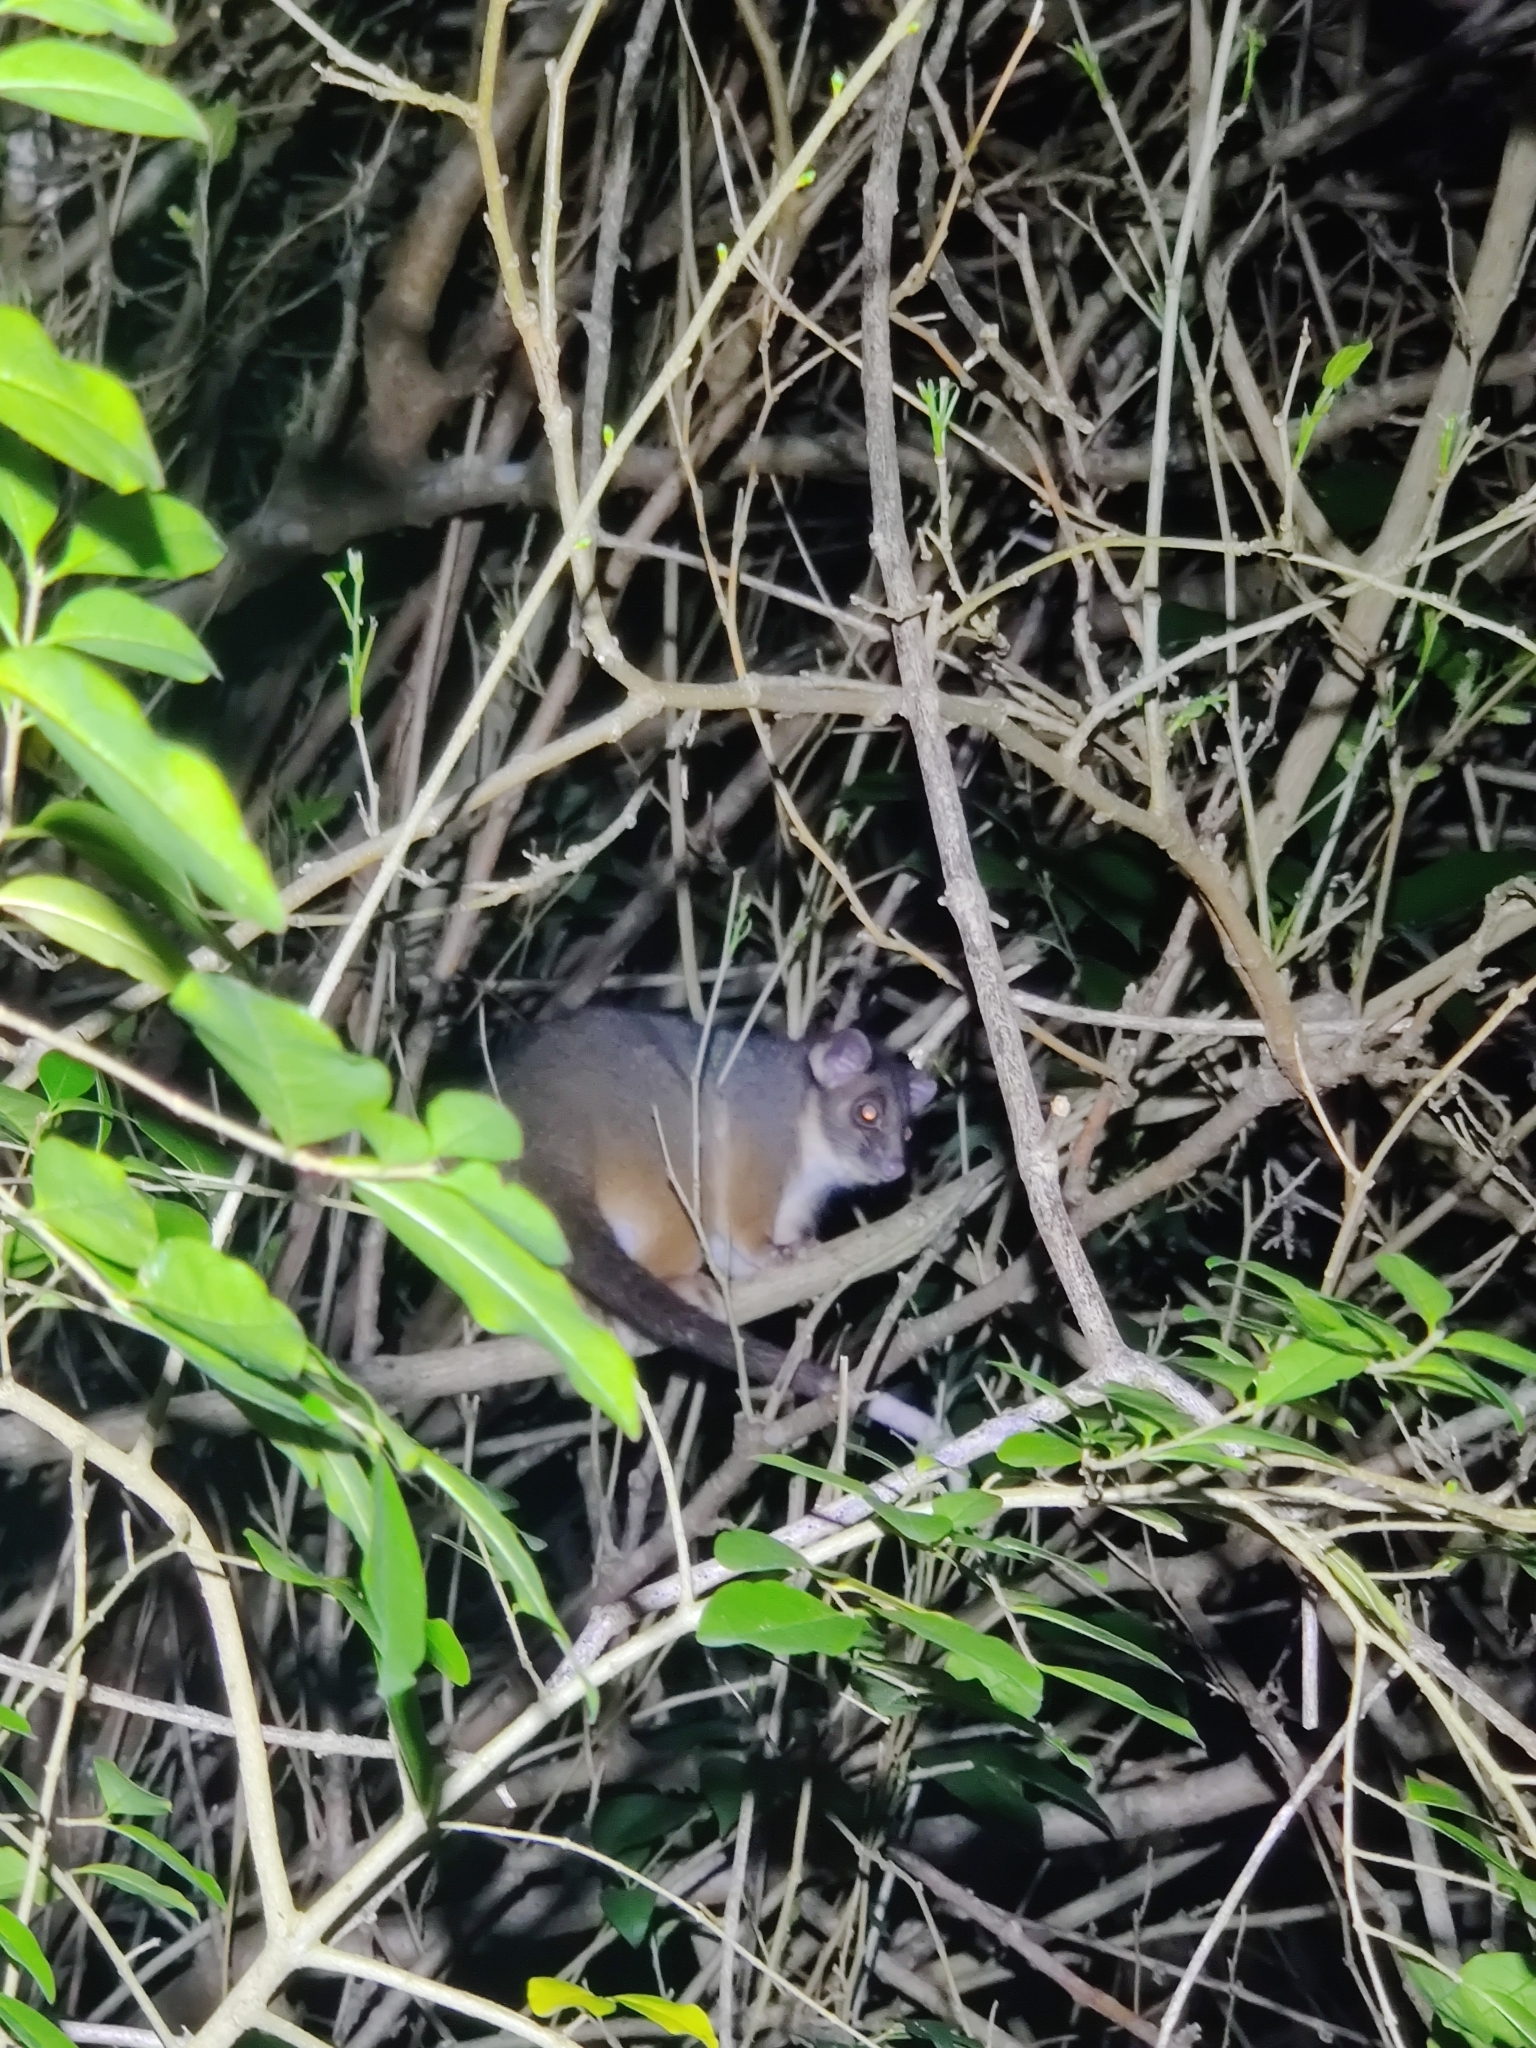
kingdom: Animalia
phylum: Chordata
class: Mammalia
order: Diprotodontia
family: Pseudocheiridae
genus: Pseudocheirus
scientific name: Pseudocheirus peregrinus
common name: Common ringtail possum
